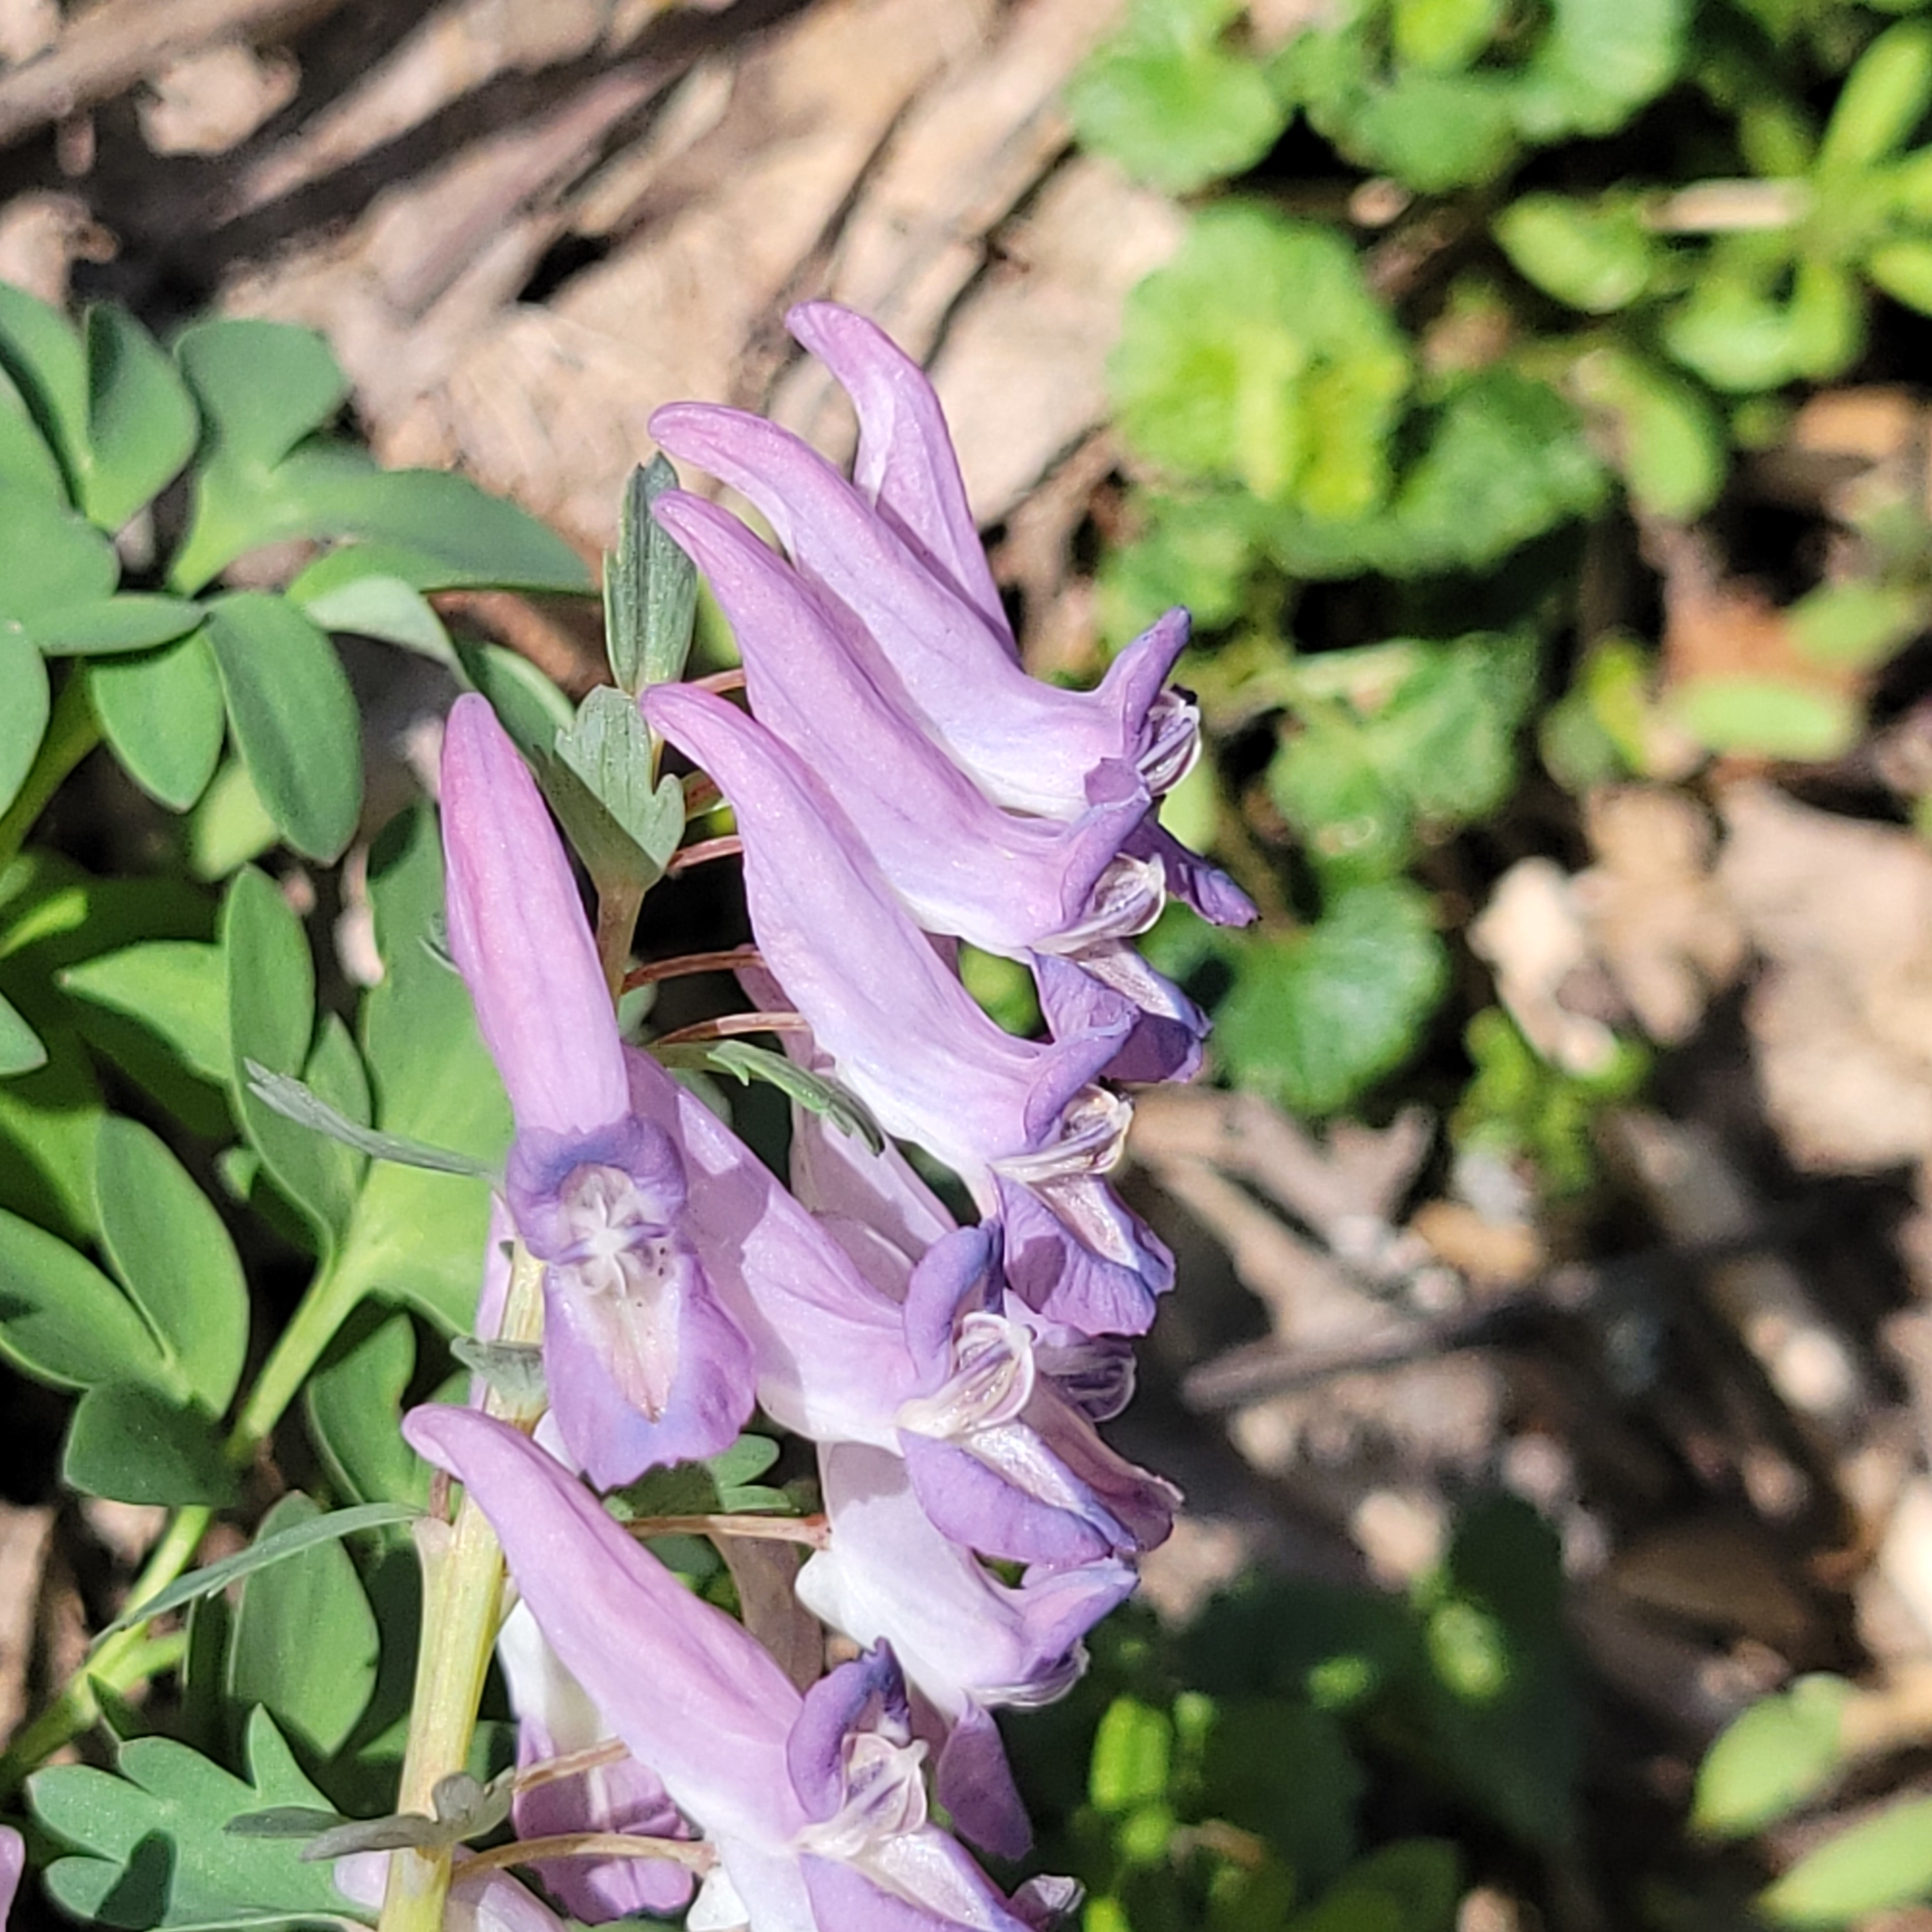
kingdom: Plantae
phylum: Tracheophyta
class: Magnoliopsida
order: Ranunculales
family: Papaveraceae
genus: Corydalis
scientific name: Corydalis solida
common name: Bird-in-a-bush
